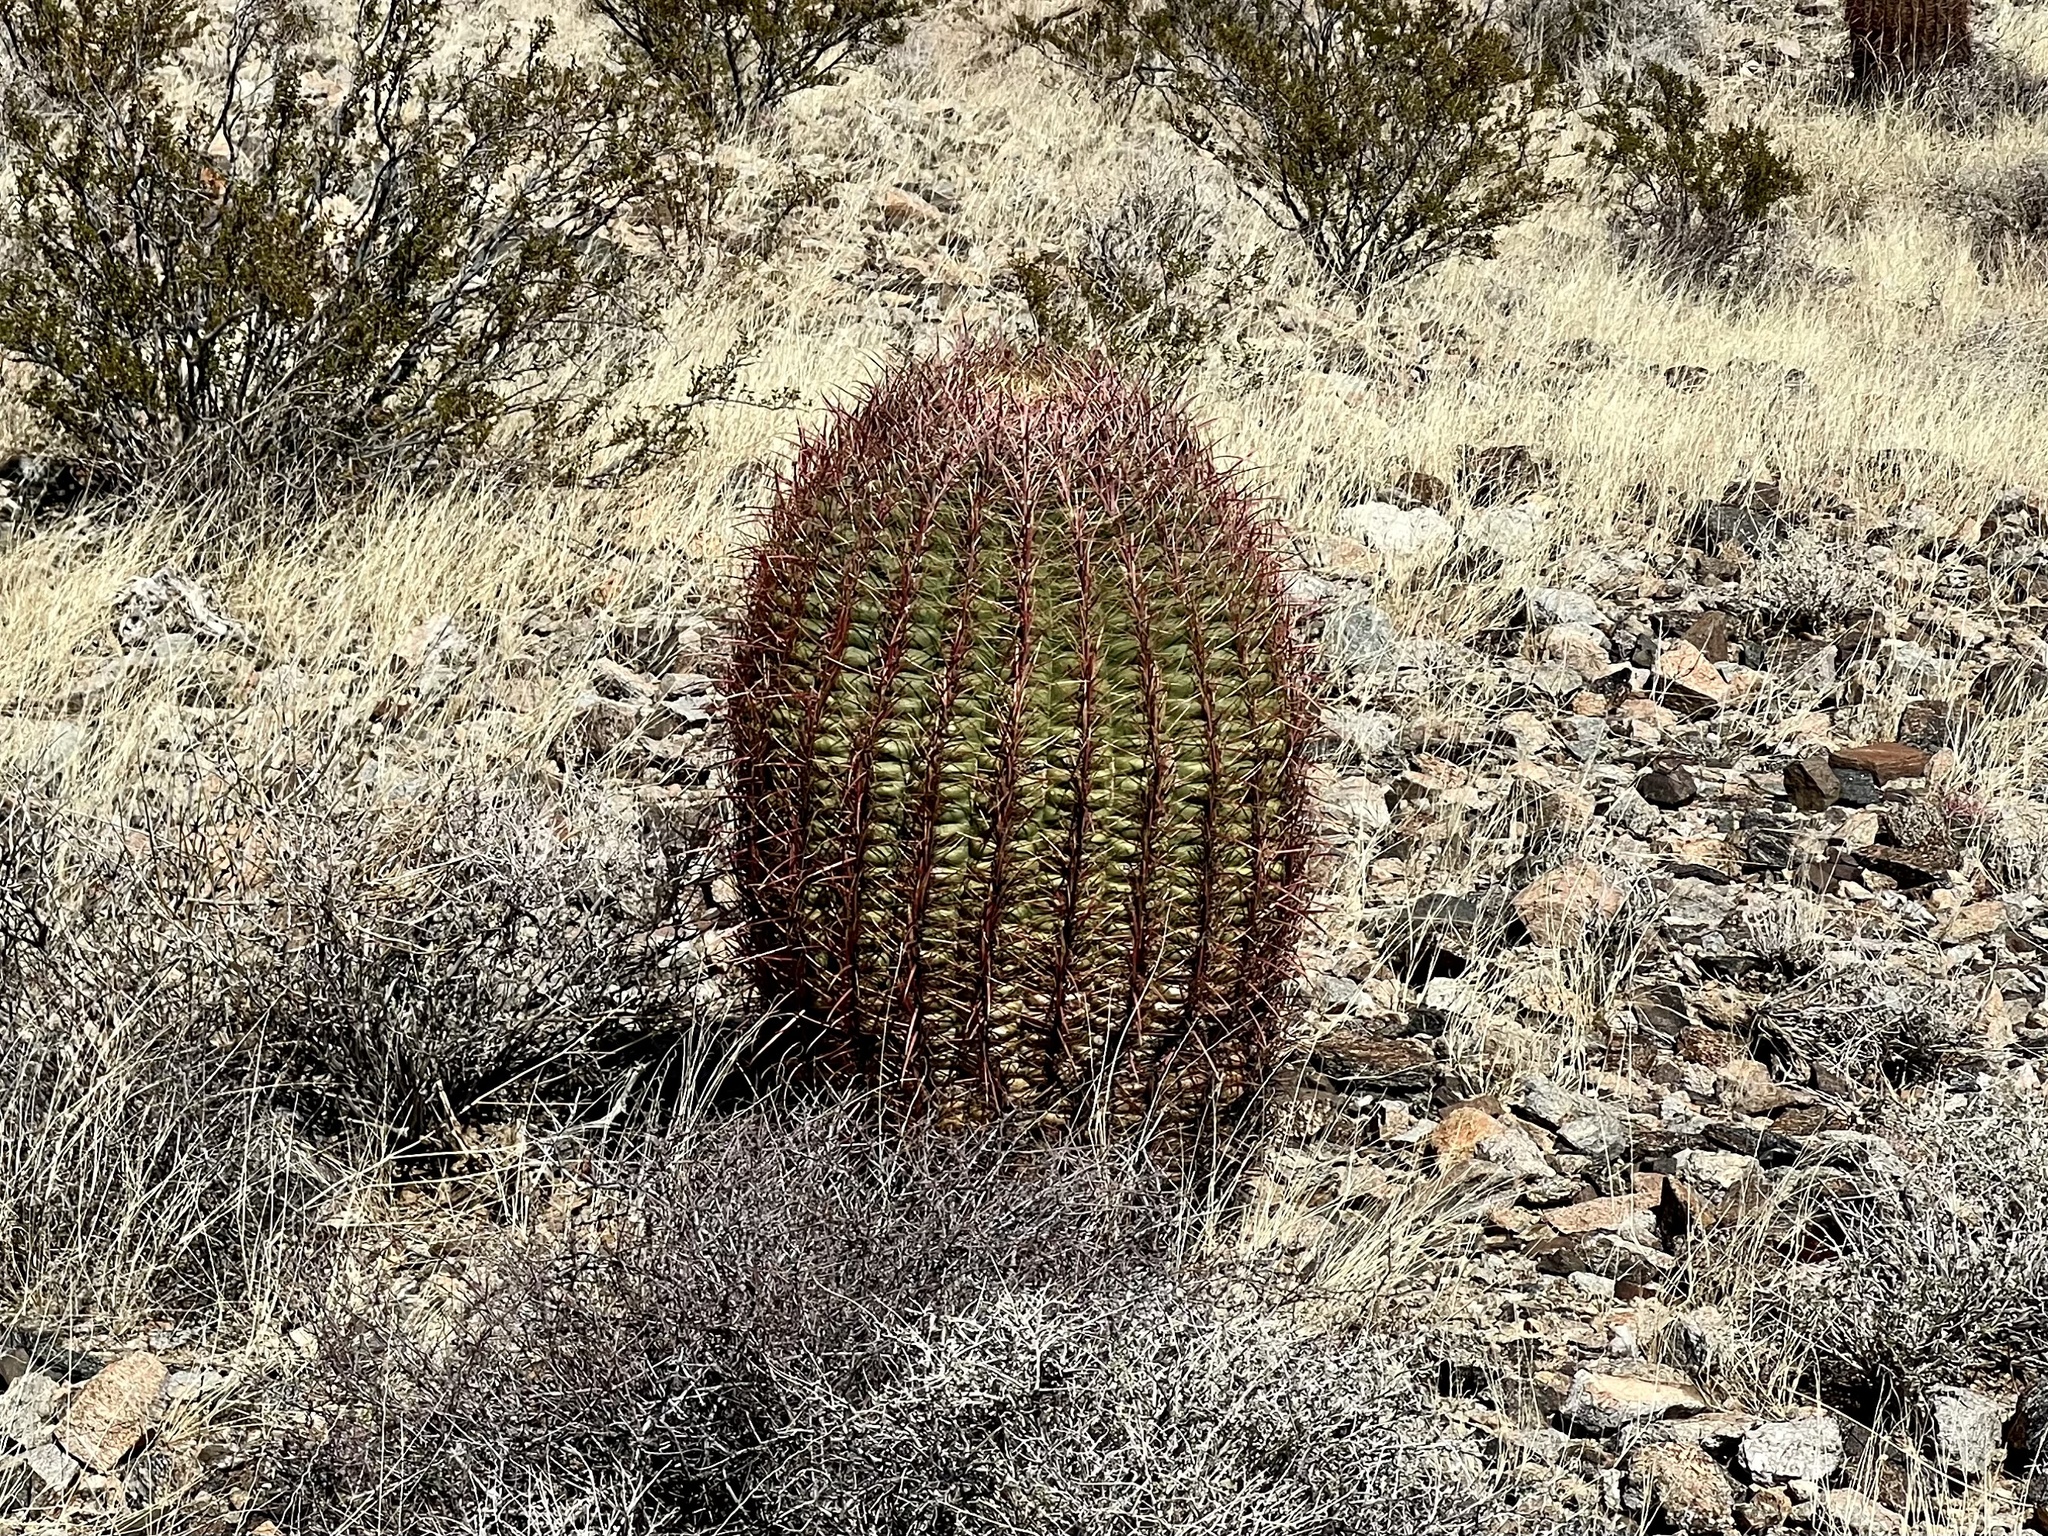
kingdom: Plantae
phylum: Tracheophyta
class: Magnoliopsida
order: Caryophyllales
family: Cactaceae
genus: Ferocactus
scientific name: Ferocactus cylindraceus
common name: California barrel cactus
